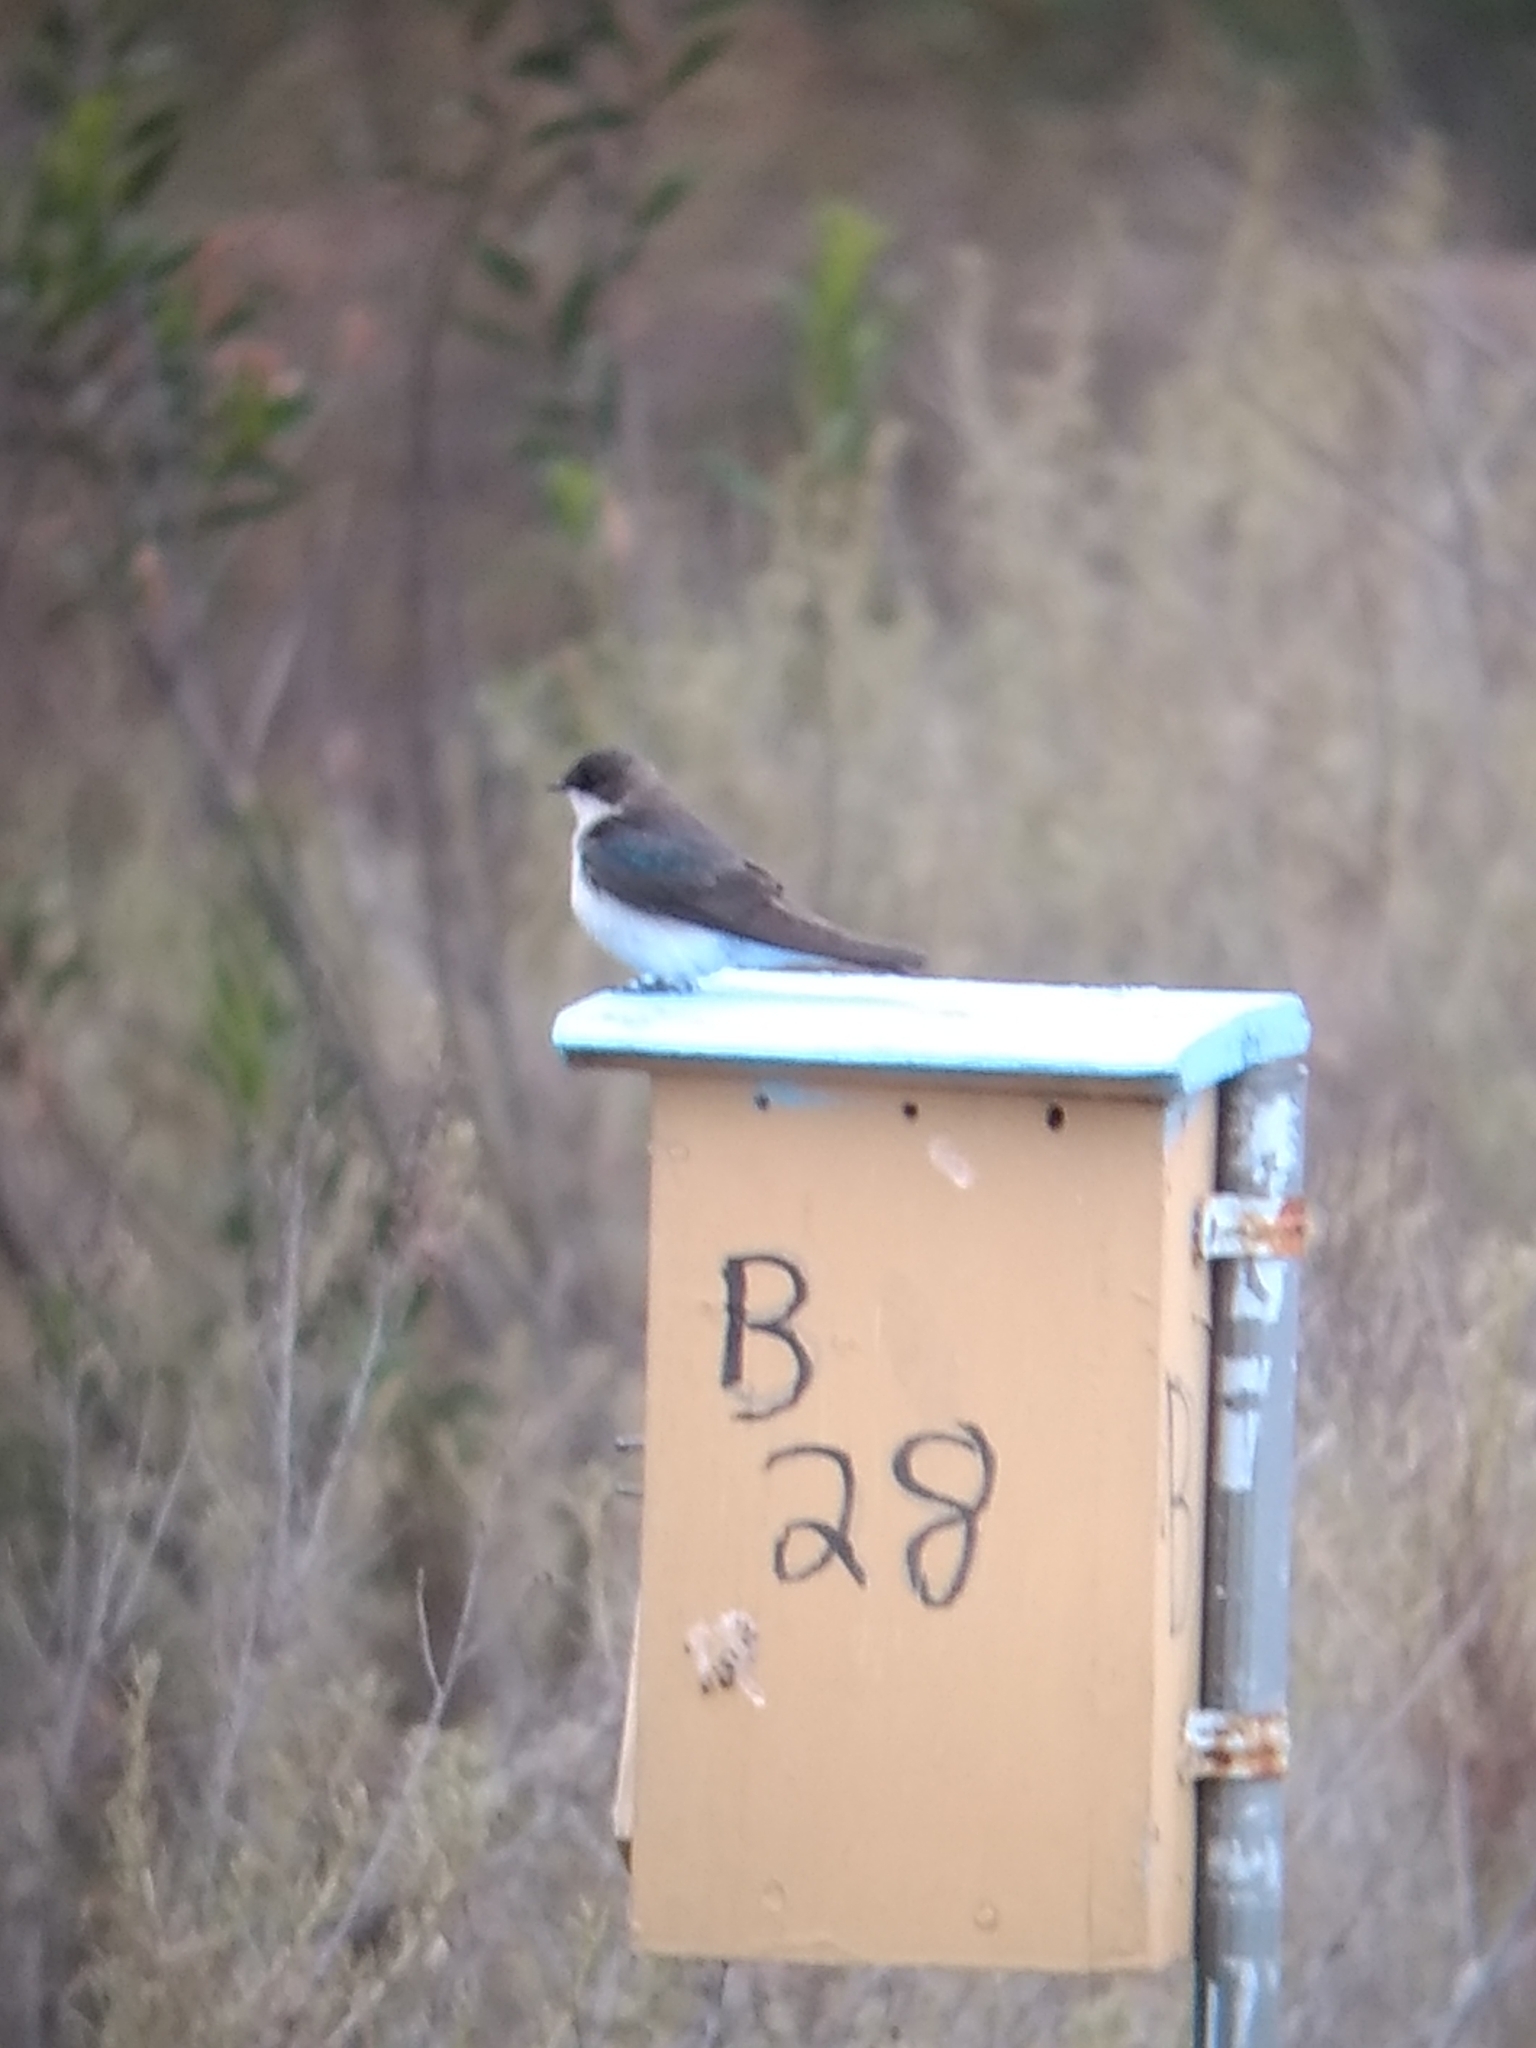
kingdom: Animalia
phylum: Chordata
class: Aves
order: Passeriformes
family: Hirundinidae
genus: Tachycineta
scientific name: Tachycineta bicolor
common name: Tree swallow
